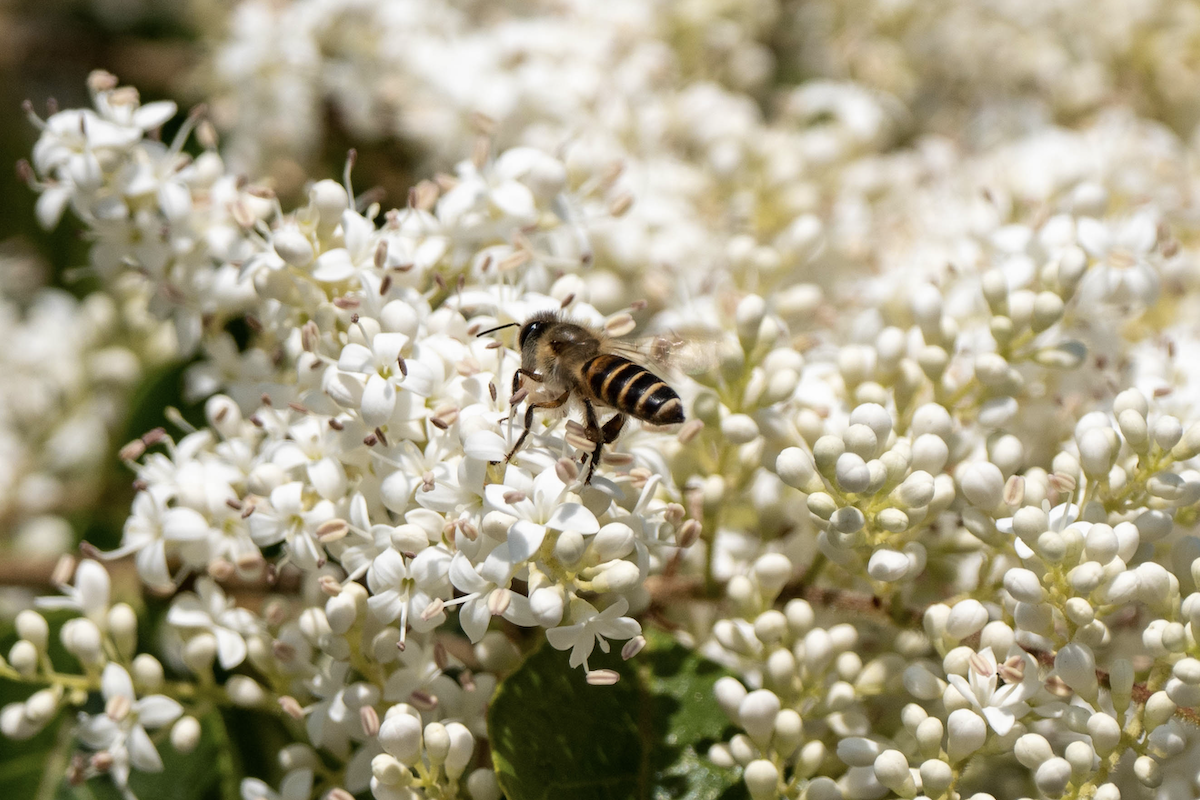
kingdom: Animalia
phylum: Arthropoda
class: Insecta
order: Hymenoptera
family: Apidae
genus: Apis
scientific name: Apis cerana
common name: Honey bee
